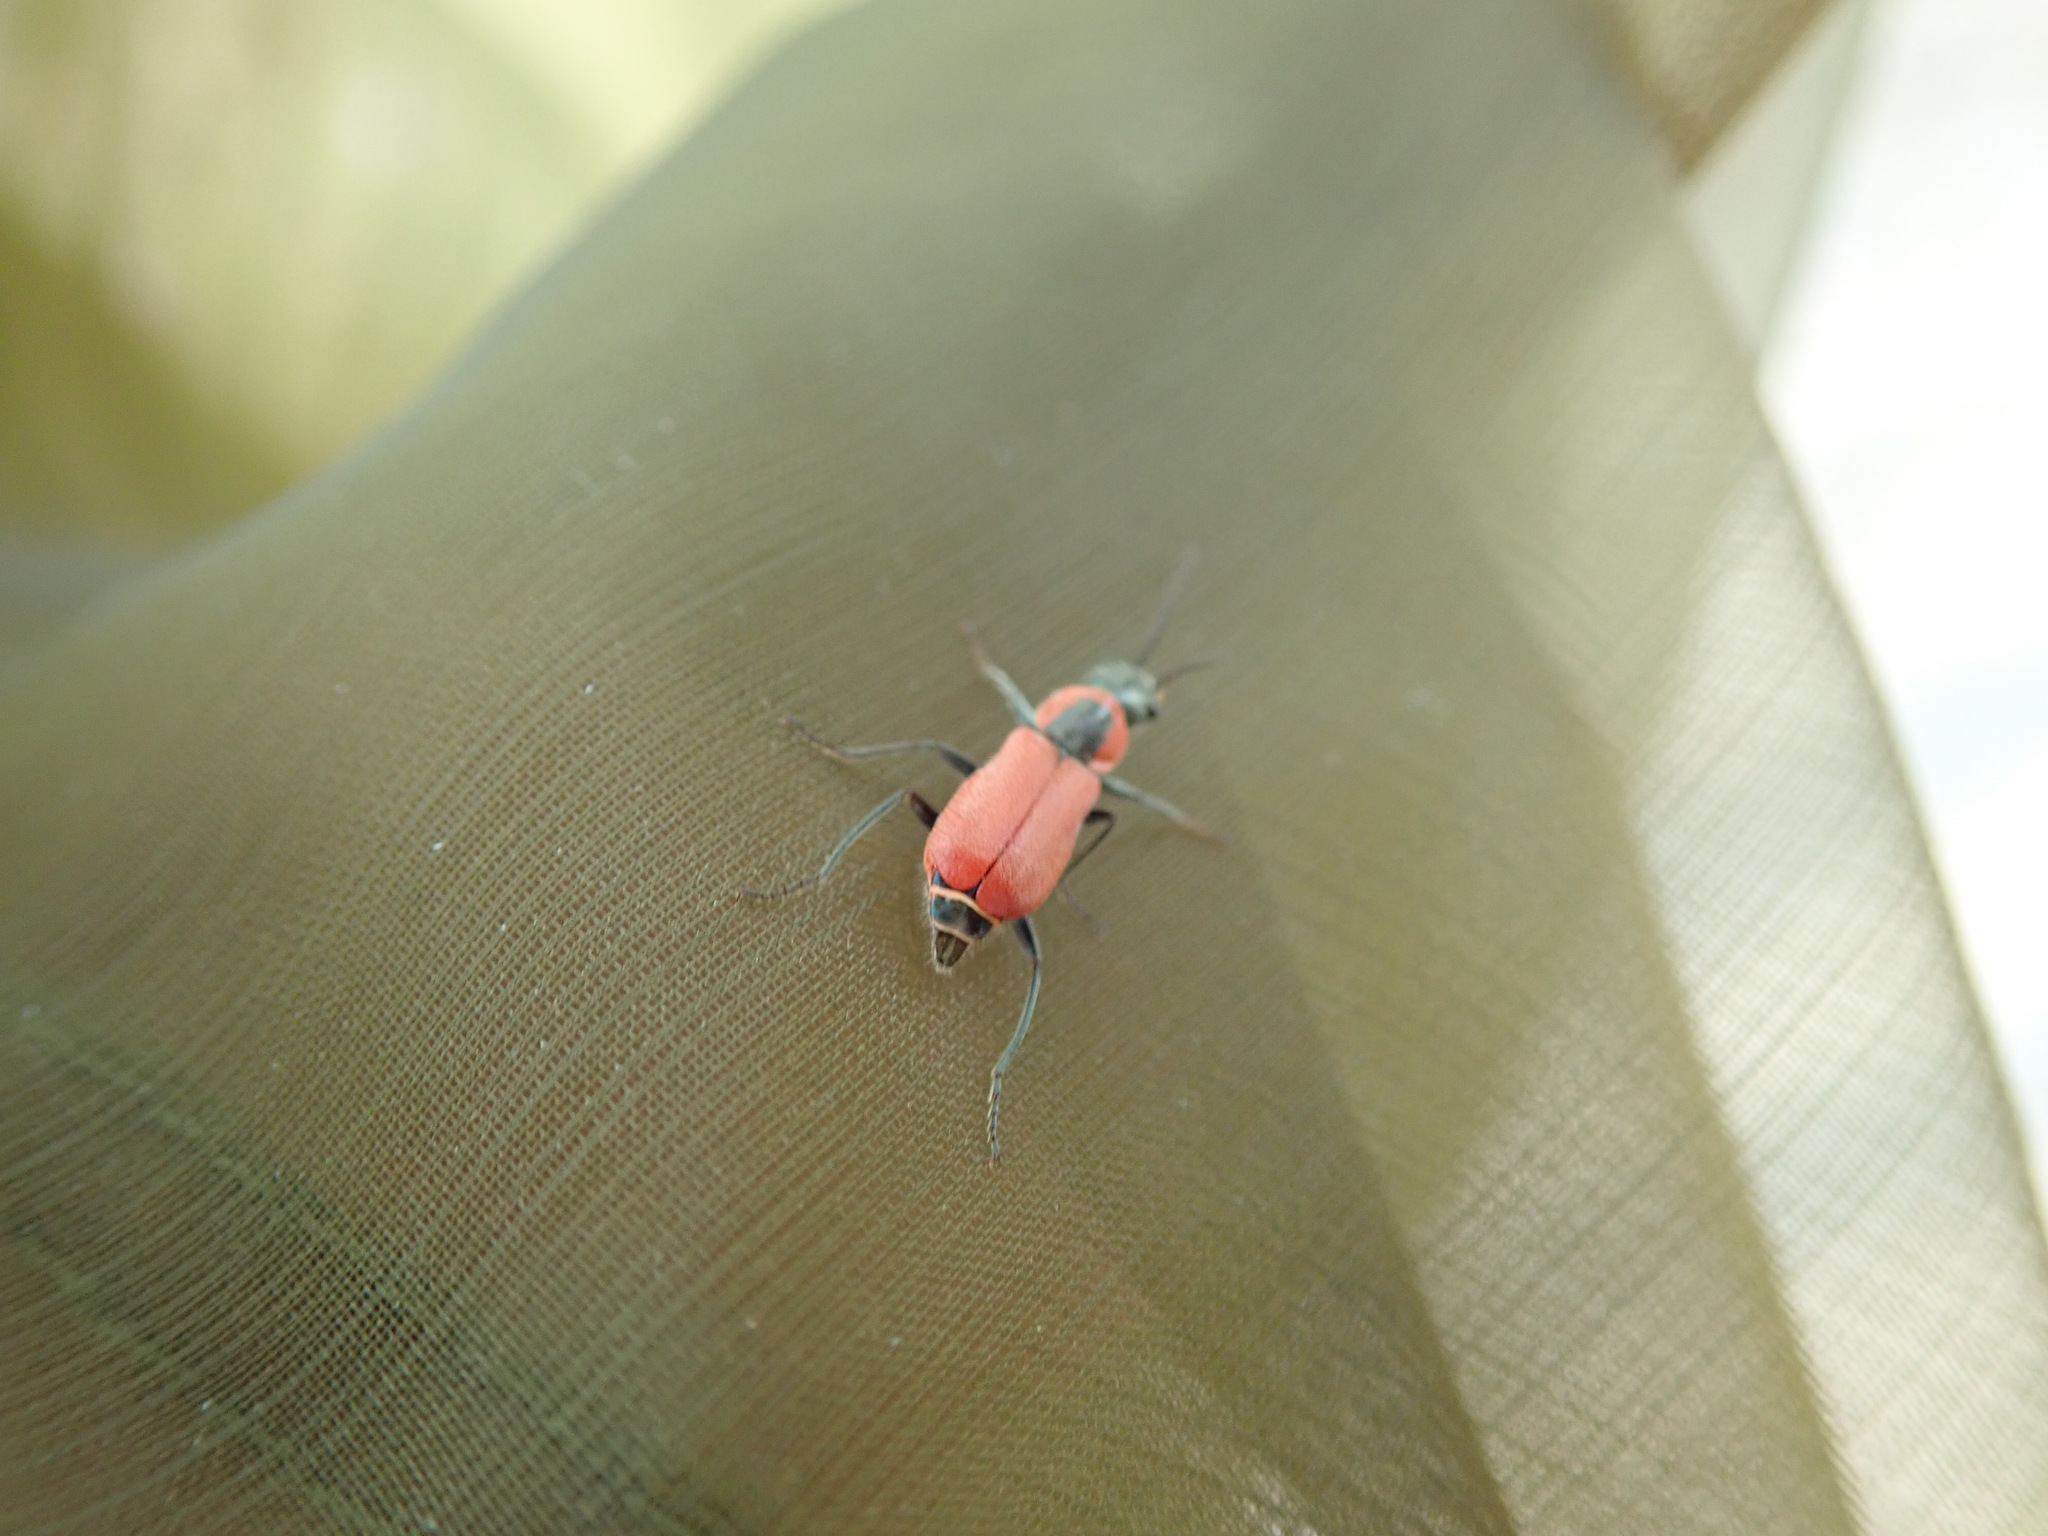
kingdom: Animalia
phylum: Arthropoda
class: Insecta
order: Coleoptera
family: Malachiidae
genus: Clanoptilus
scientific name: Clanoptilus rufus
